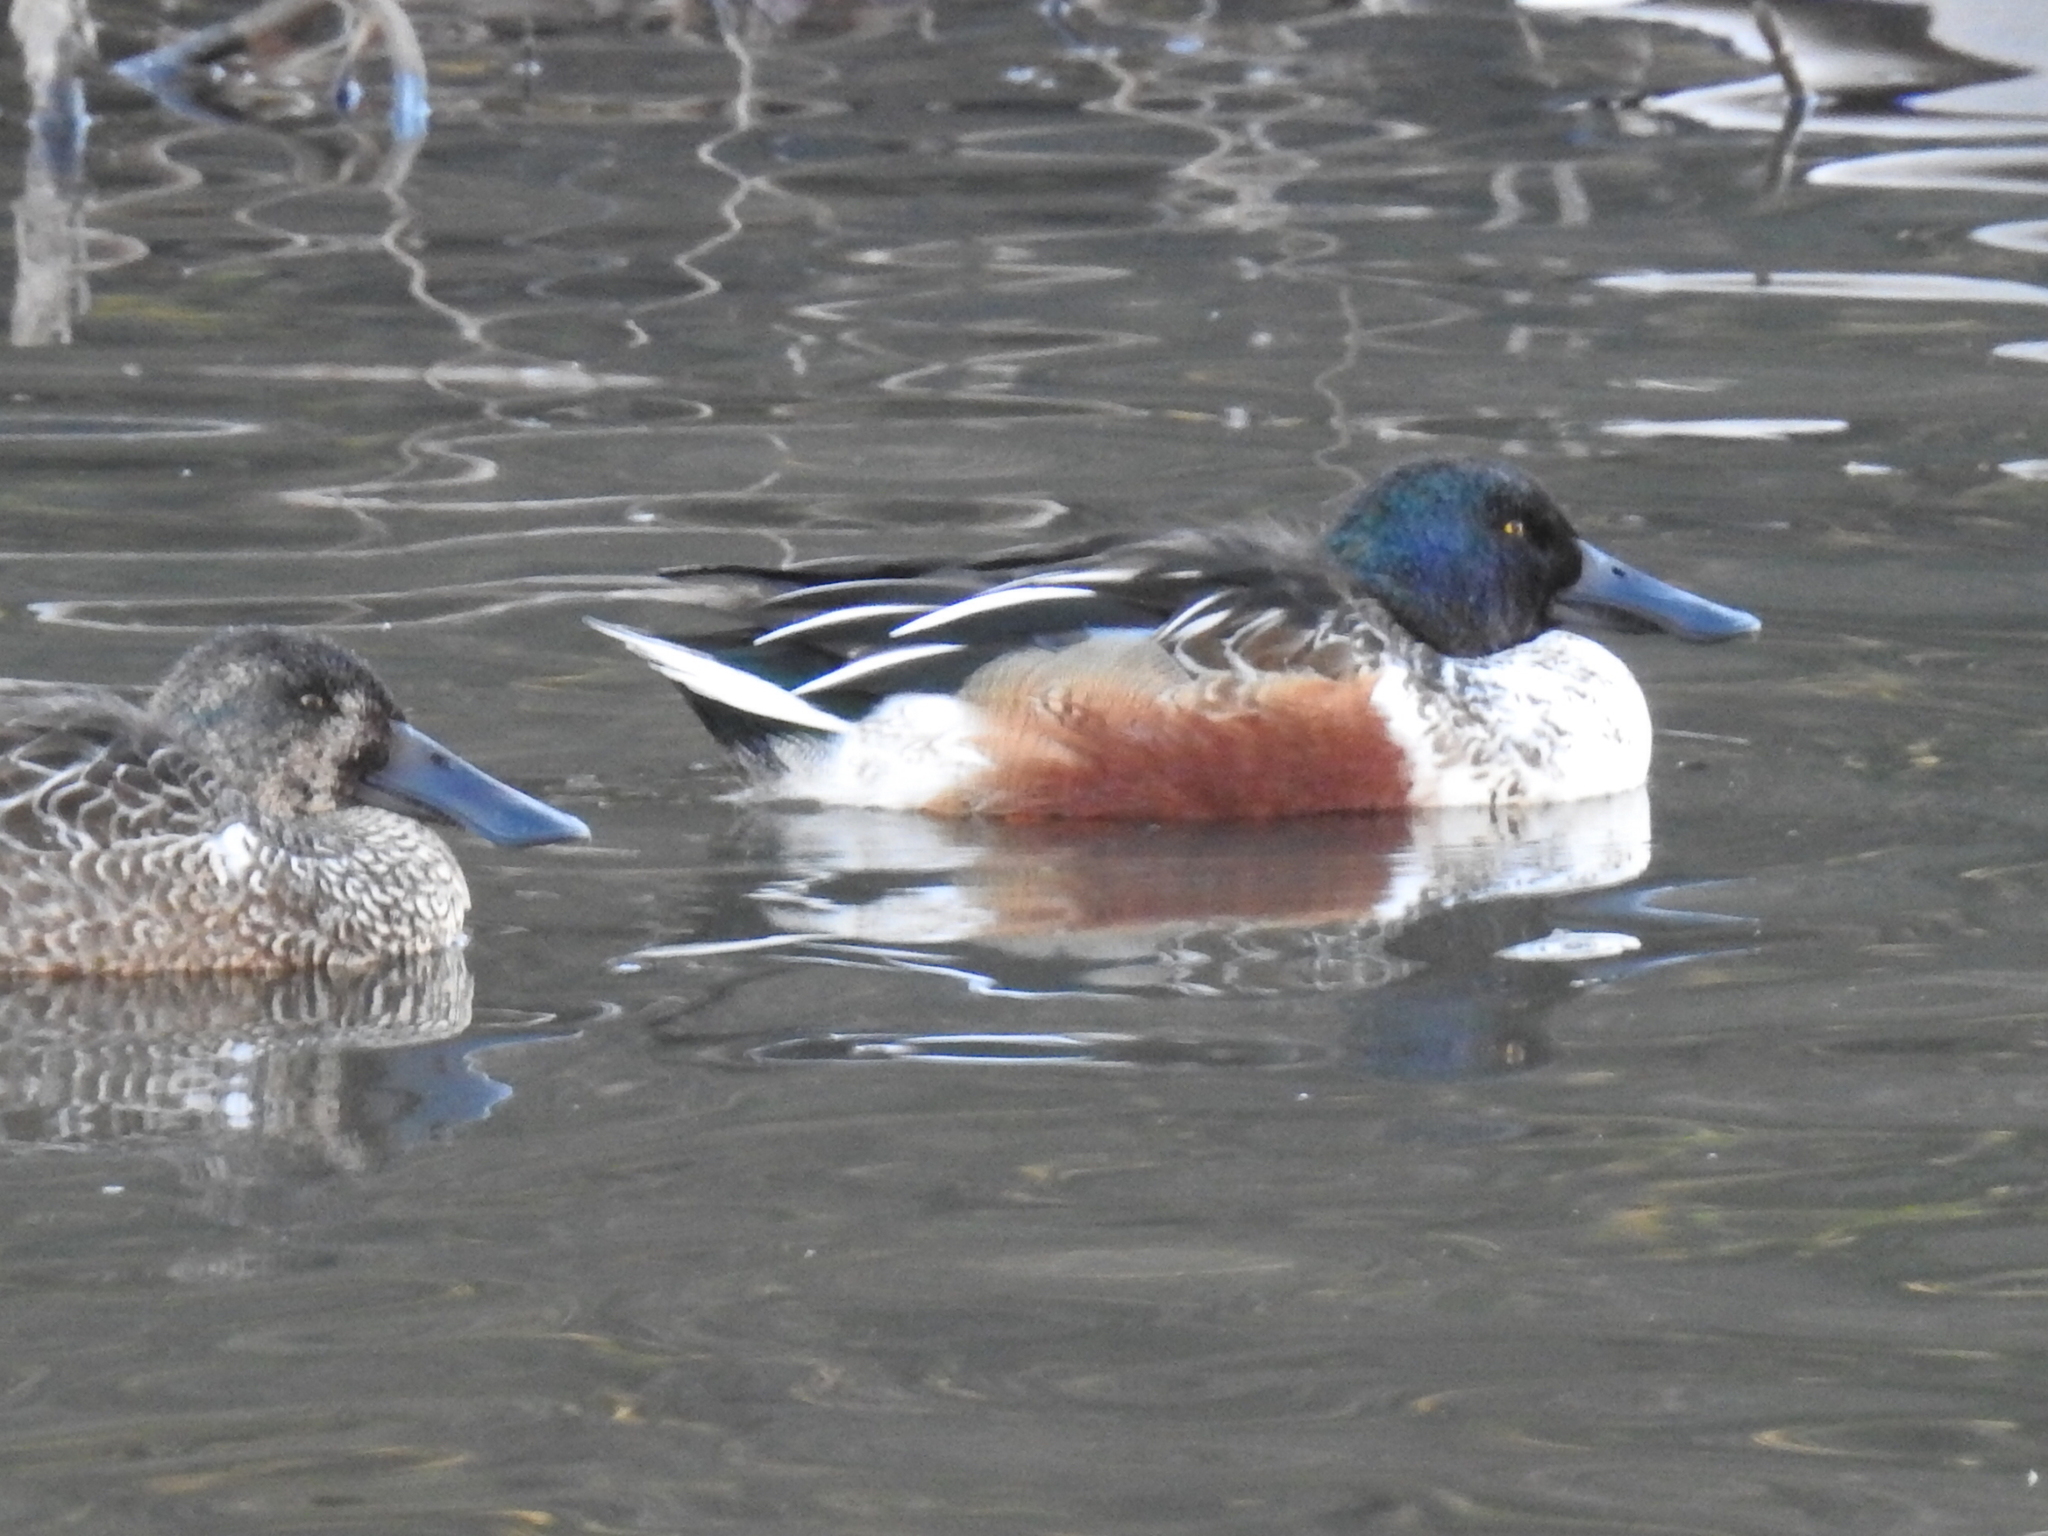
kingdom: Animalia
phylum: Chordata
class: Aves
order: Anseriformes
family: Anatidae
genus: Spatula
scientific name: Spatula clypeata
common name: Northern shoveler
